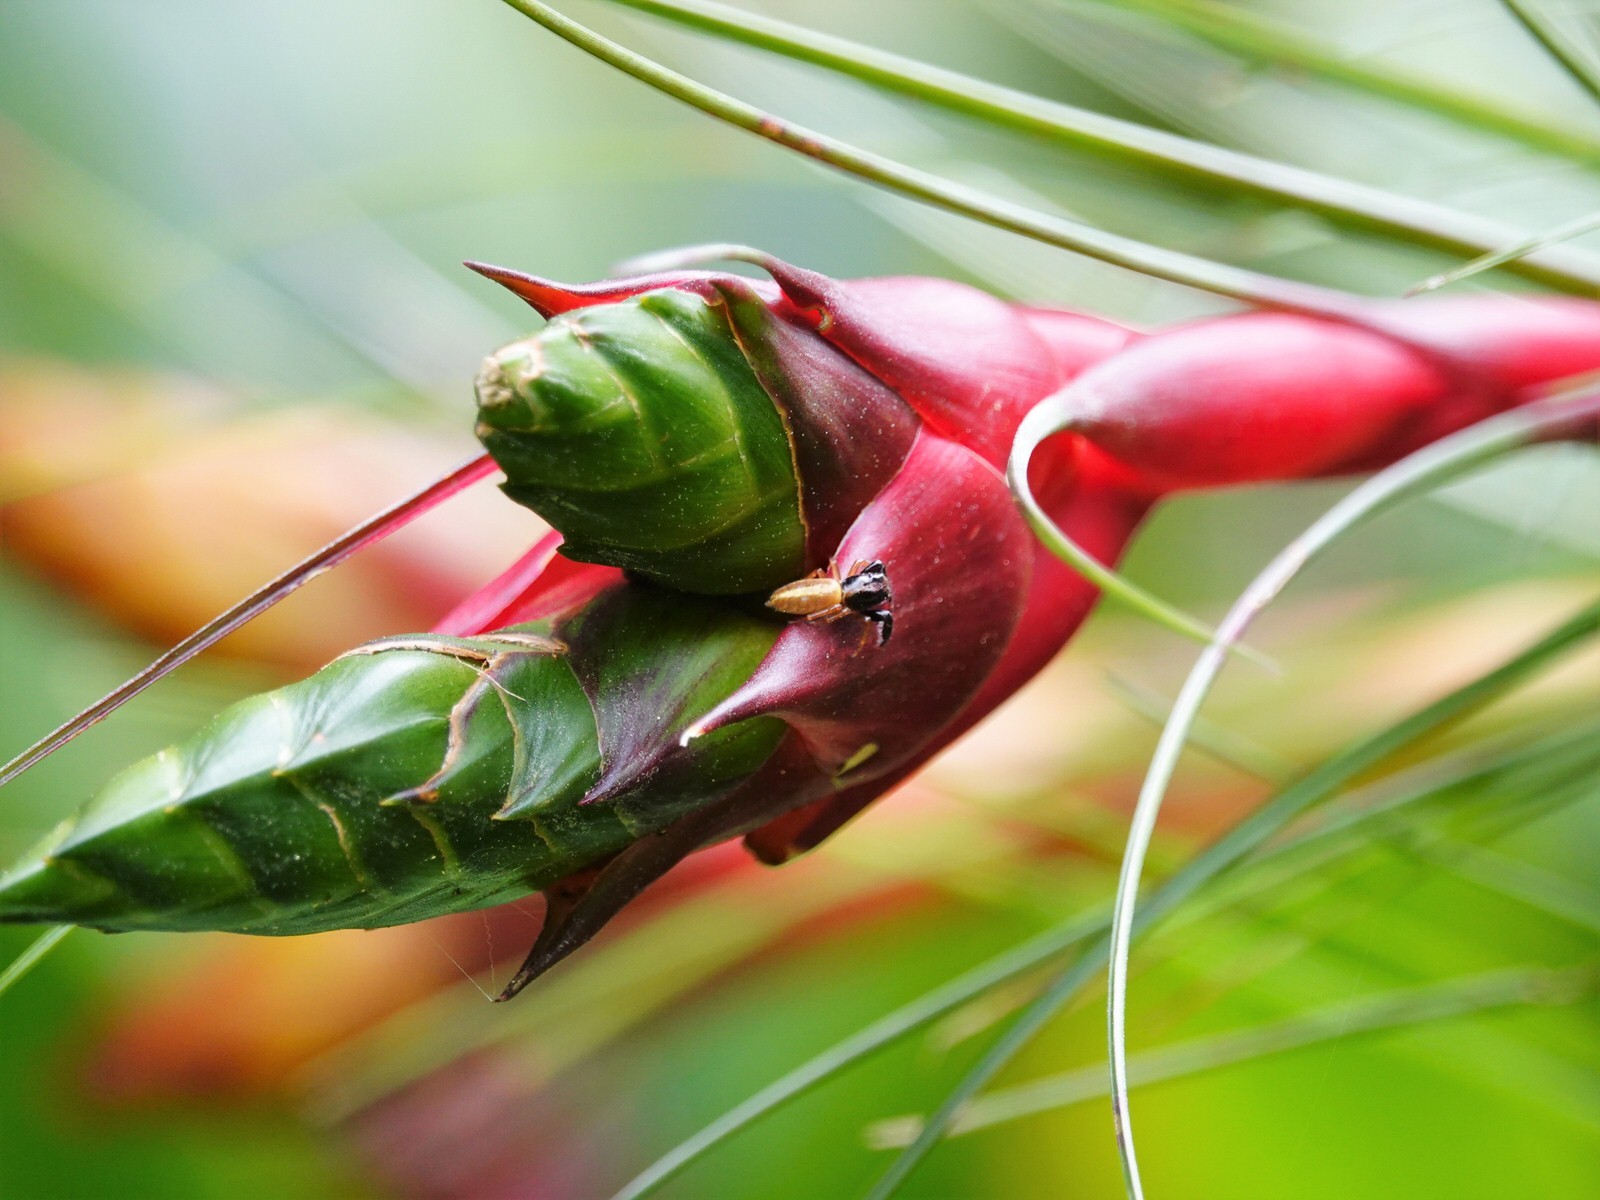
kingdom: Animalia
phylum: Arthropoda
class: Arachnida
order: Araneae
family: Salticidae
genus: Trite
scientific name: Trite planiceps
